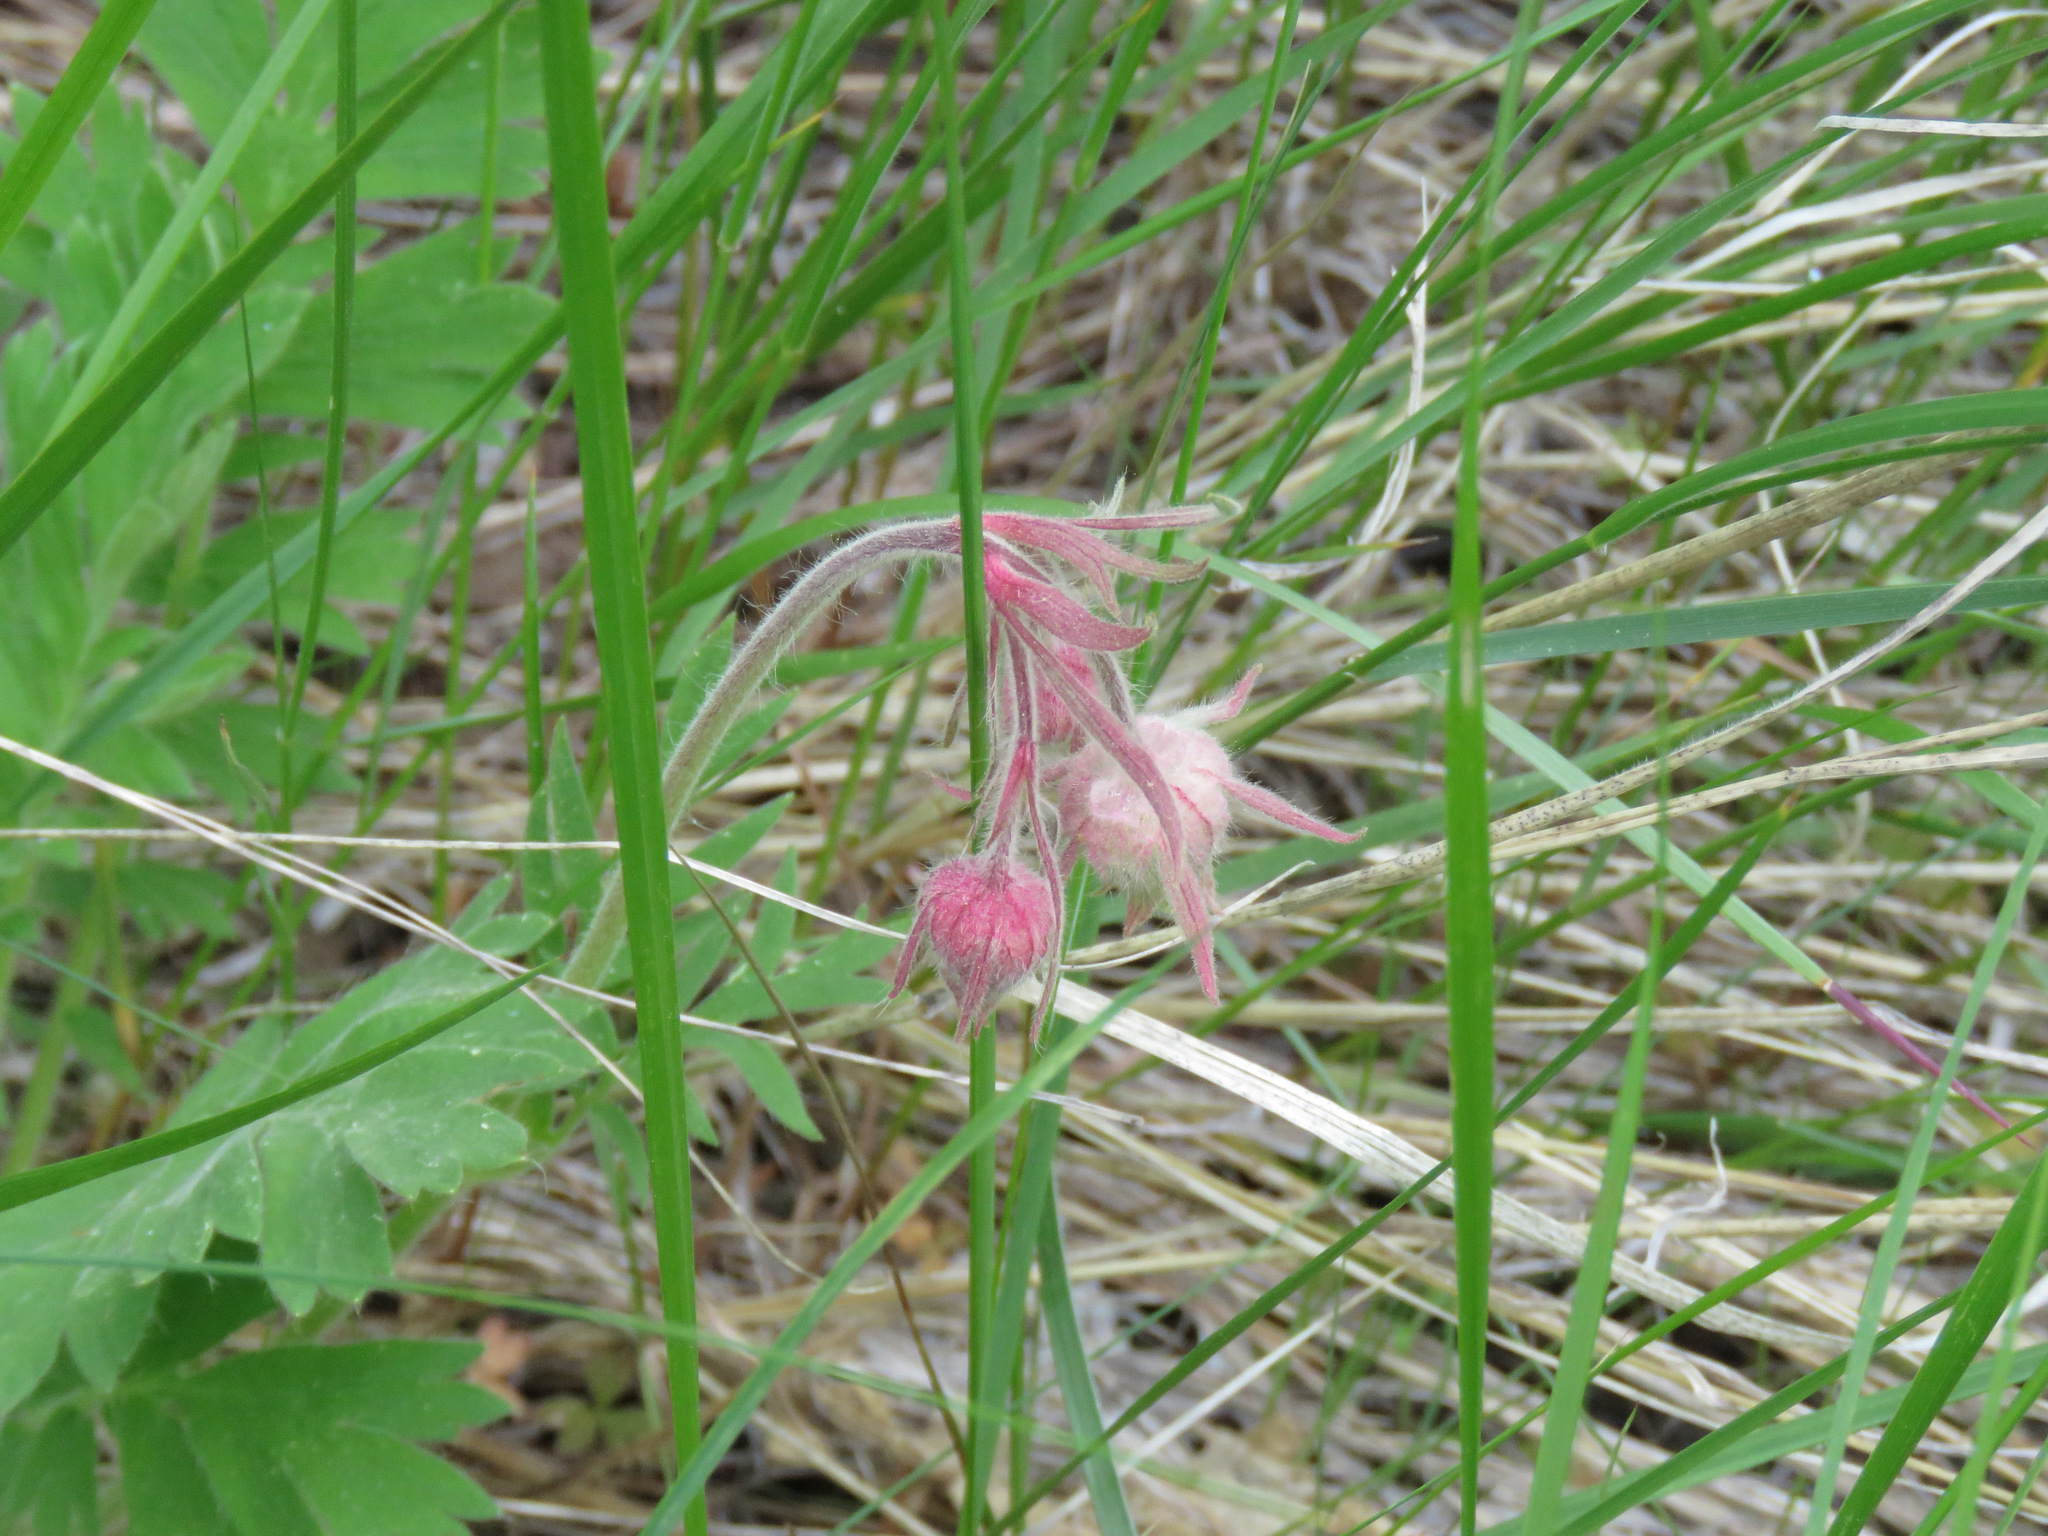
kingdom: Plantae
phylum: Tracheophyta
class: Magnoliopsida
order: Rosales
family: Rosaceae
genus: Geum
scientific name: Geum triflorum
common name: Old man's whiskers
